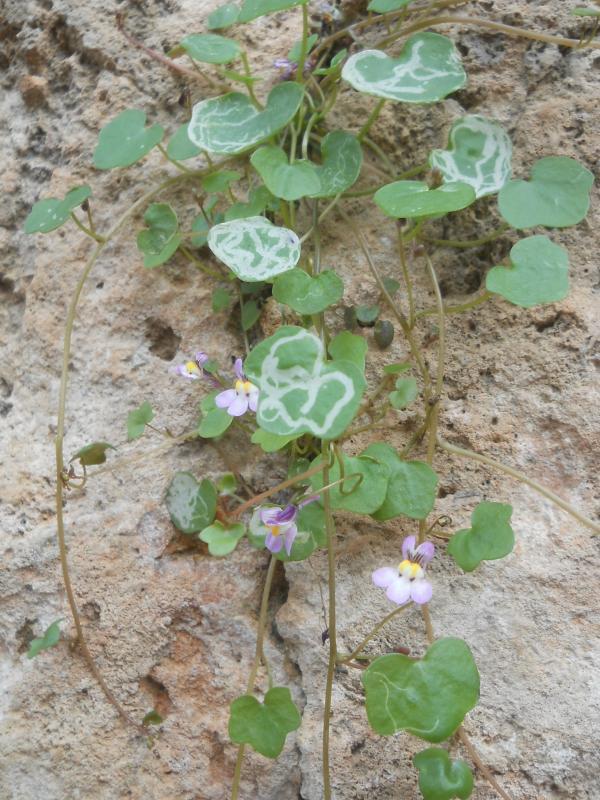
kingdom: Plantae
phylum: Tracheophyta
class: Magnoliopsida
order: Lamiales
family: Plantaginaceae
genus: Cymbalaria
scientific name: Cymbalaria longipes
